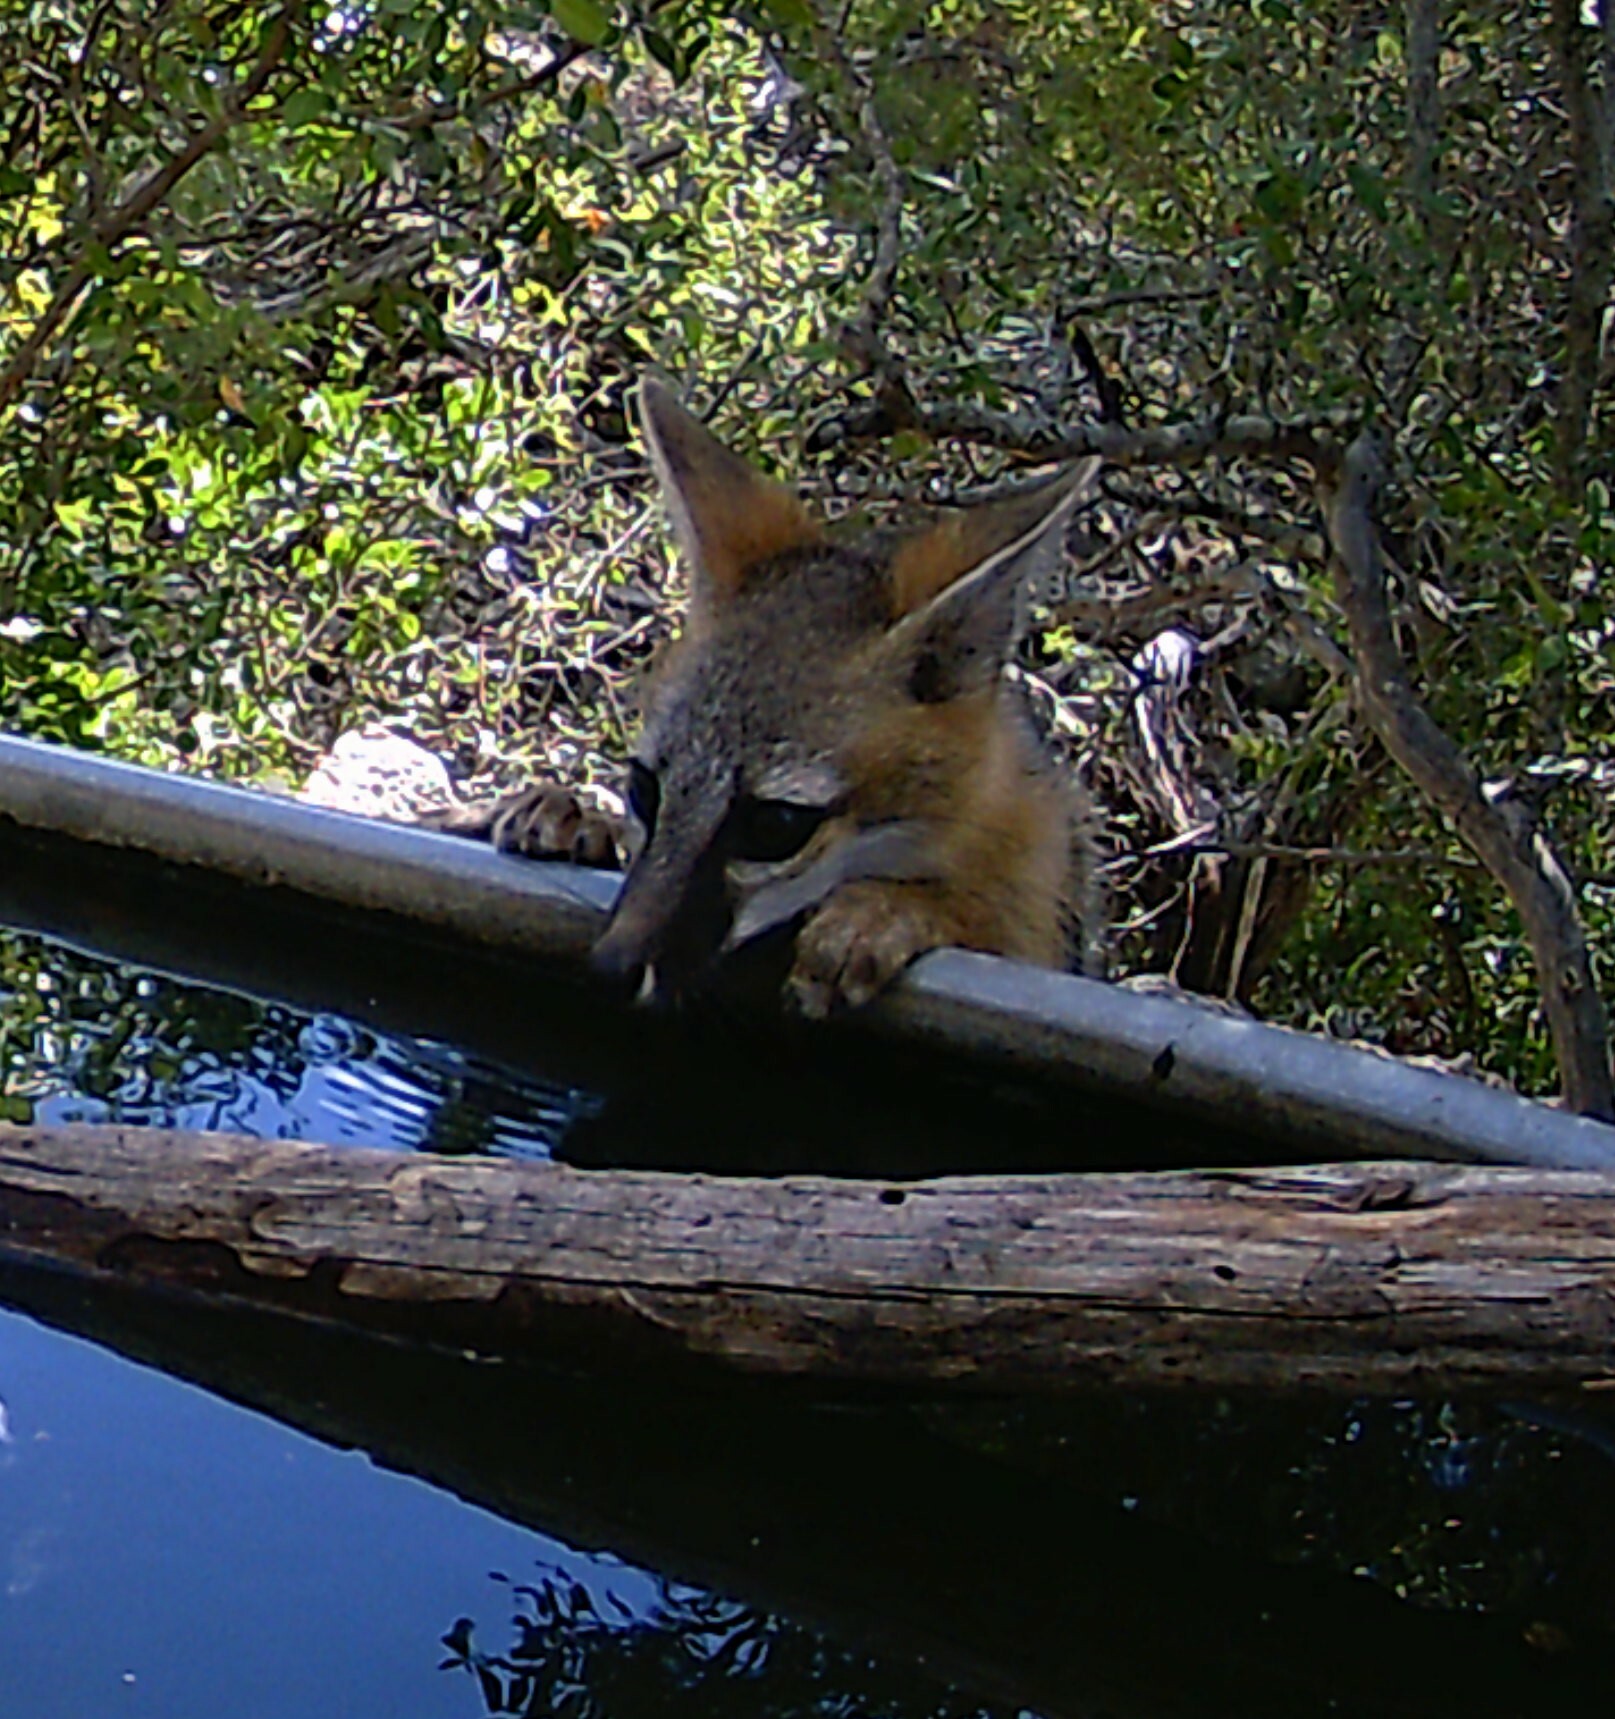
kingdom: Animalia
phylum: Chordata
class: Mammalia
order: Carnivora
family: Canidae
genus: Urocyon
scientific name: Urocyon cinereoargenteus
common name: Gray fox
